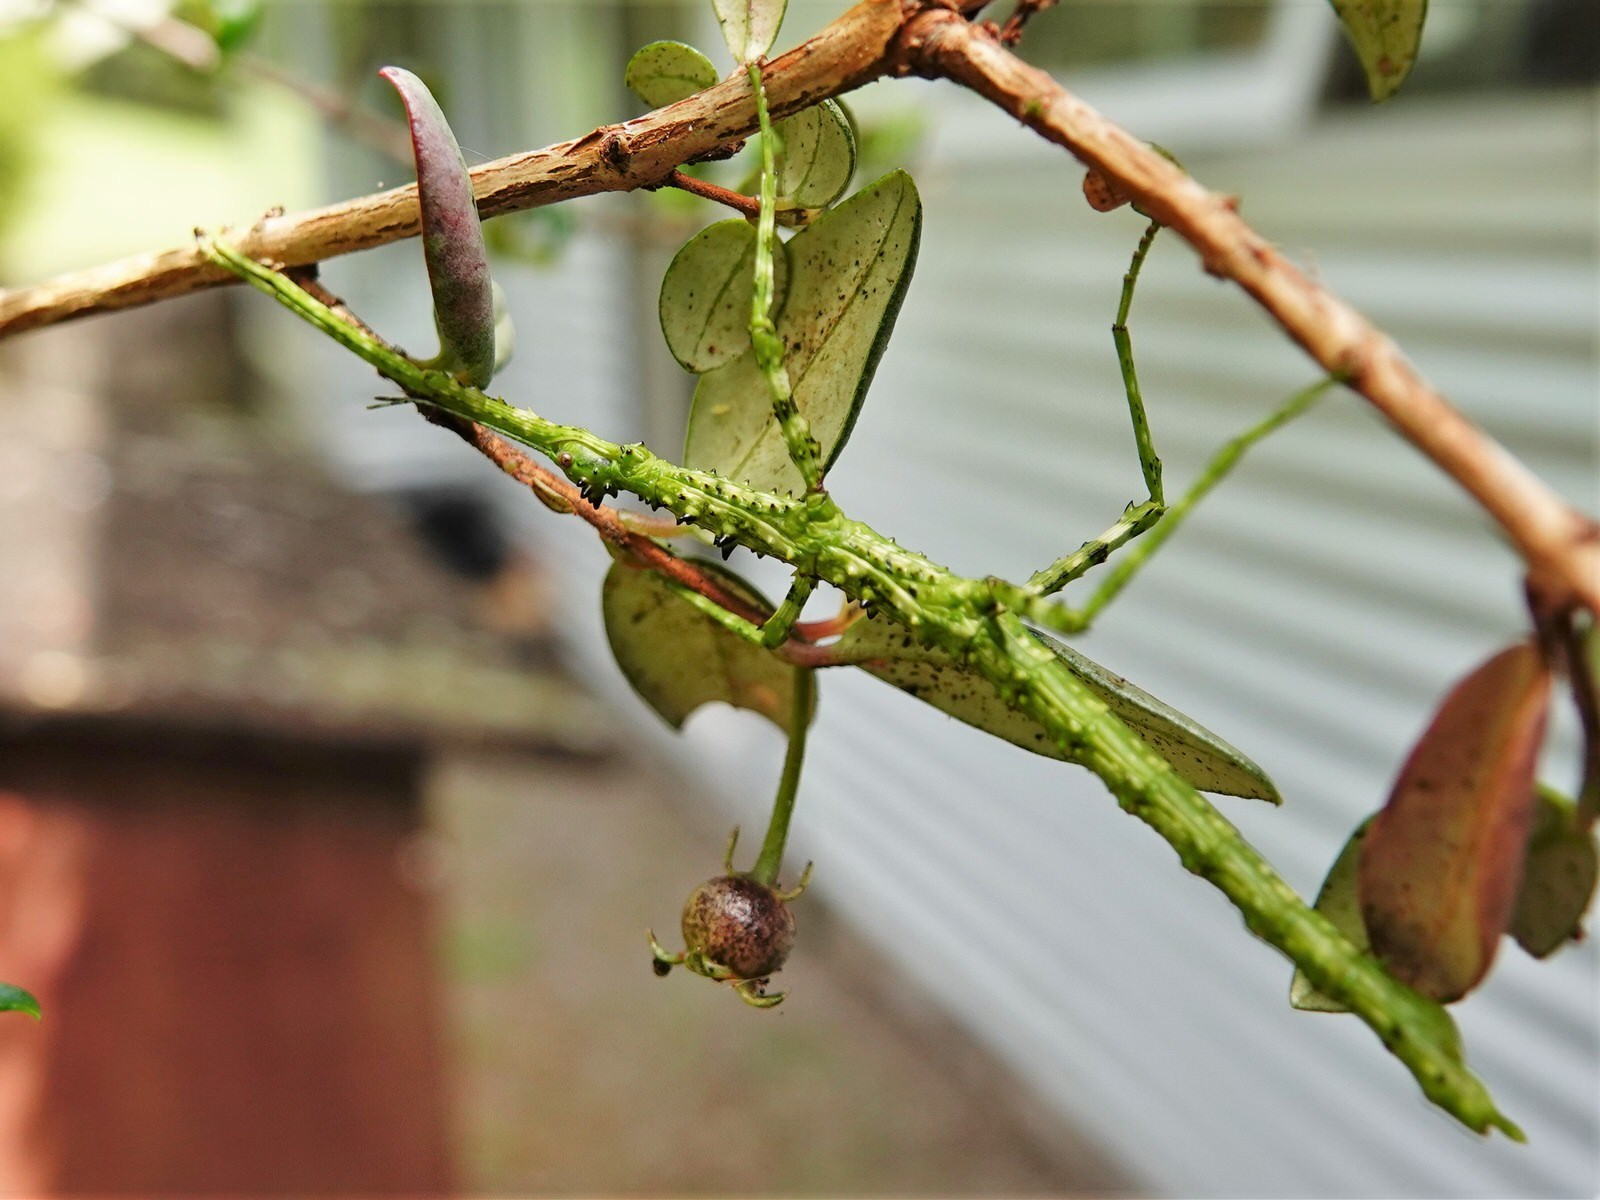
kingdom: Animalia
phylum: Arthropoda
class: Insecta
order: Phasmida
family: Phasmatidae
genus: Acanthoxyla
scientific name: Acanthoxyla prasina
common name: Black-spined stick insect
